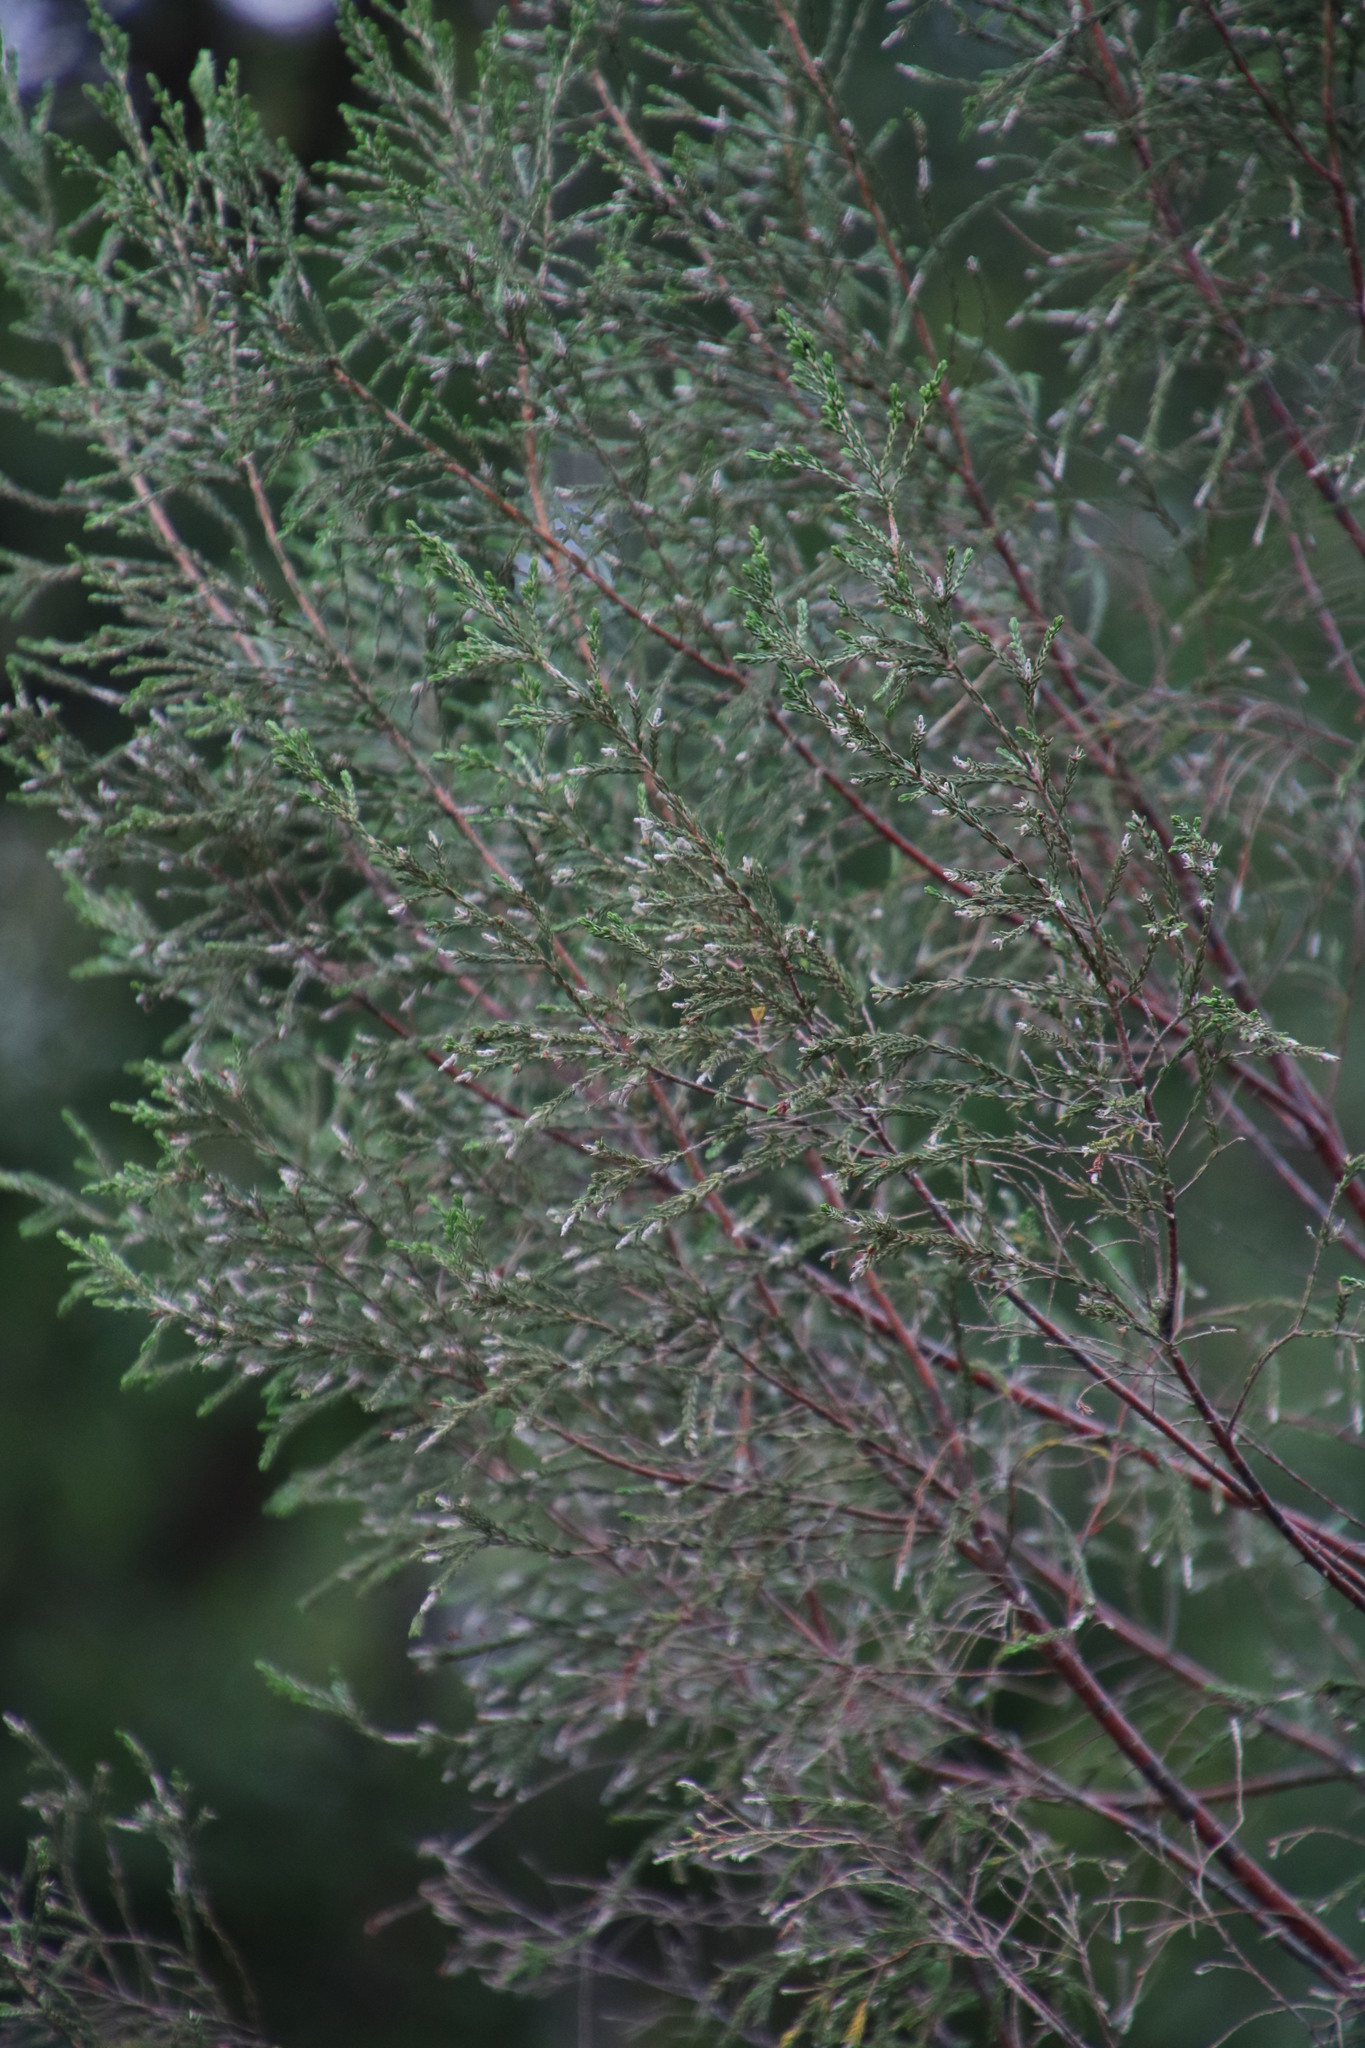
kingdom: Plantae
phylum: Tracheophyta
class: Magnoliopsida
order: Malvales
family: Thymelaeaceae
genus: Passerina
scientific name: Passerina corymbosa
